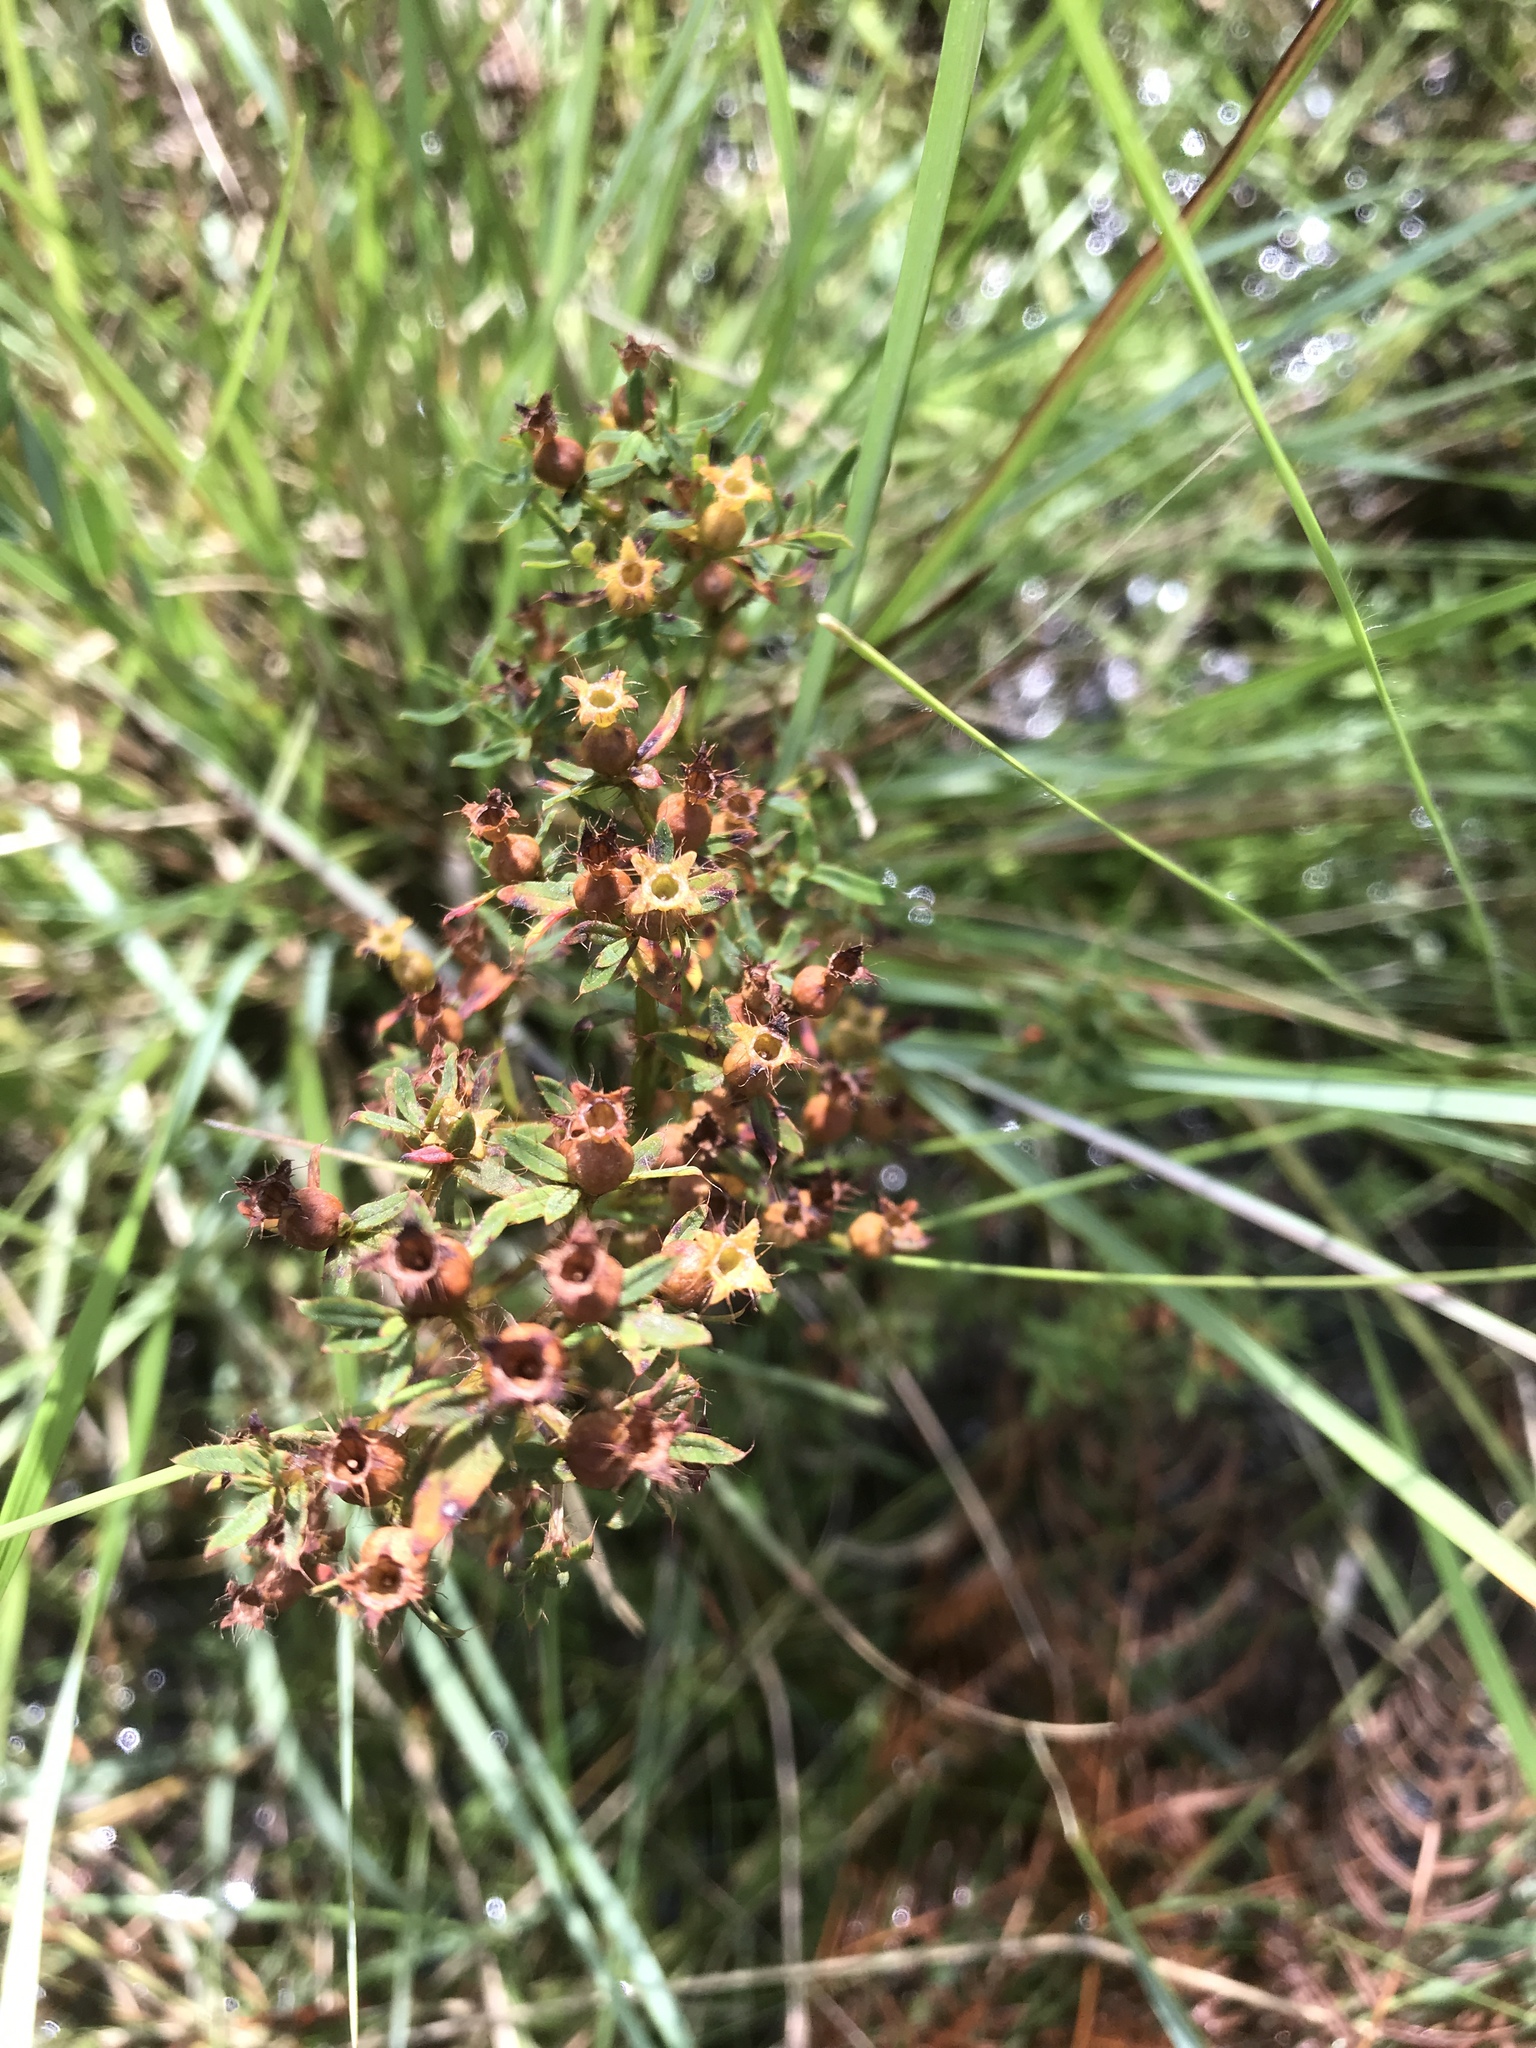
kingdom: Plantae
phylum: Tracheophyta
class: Magnoliopsida
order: Myrtales
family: Melastomataceae
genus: Rhexia
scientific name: Rhexia lutea
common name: Golden meadow-beauty
